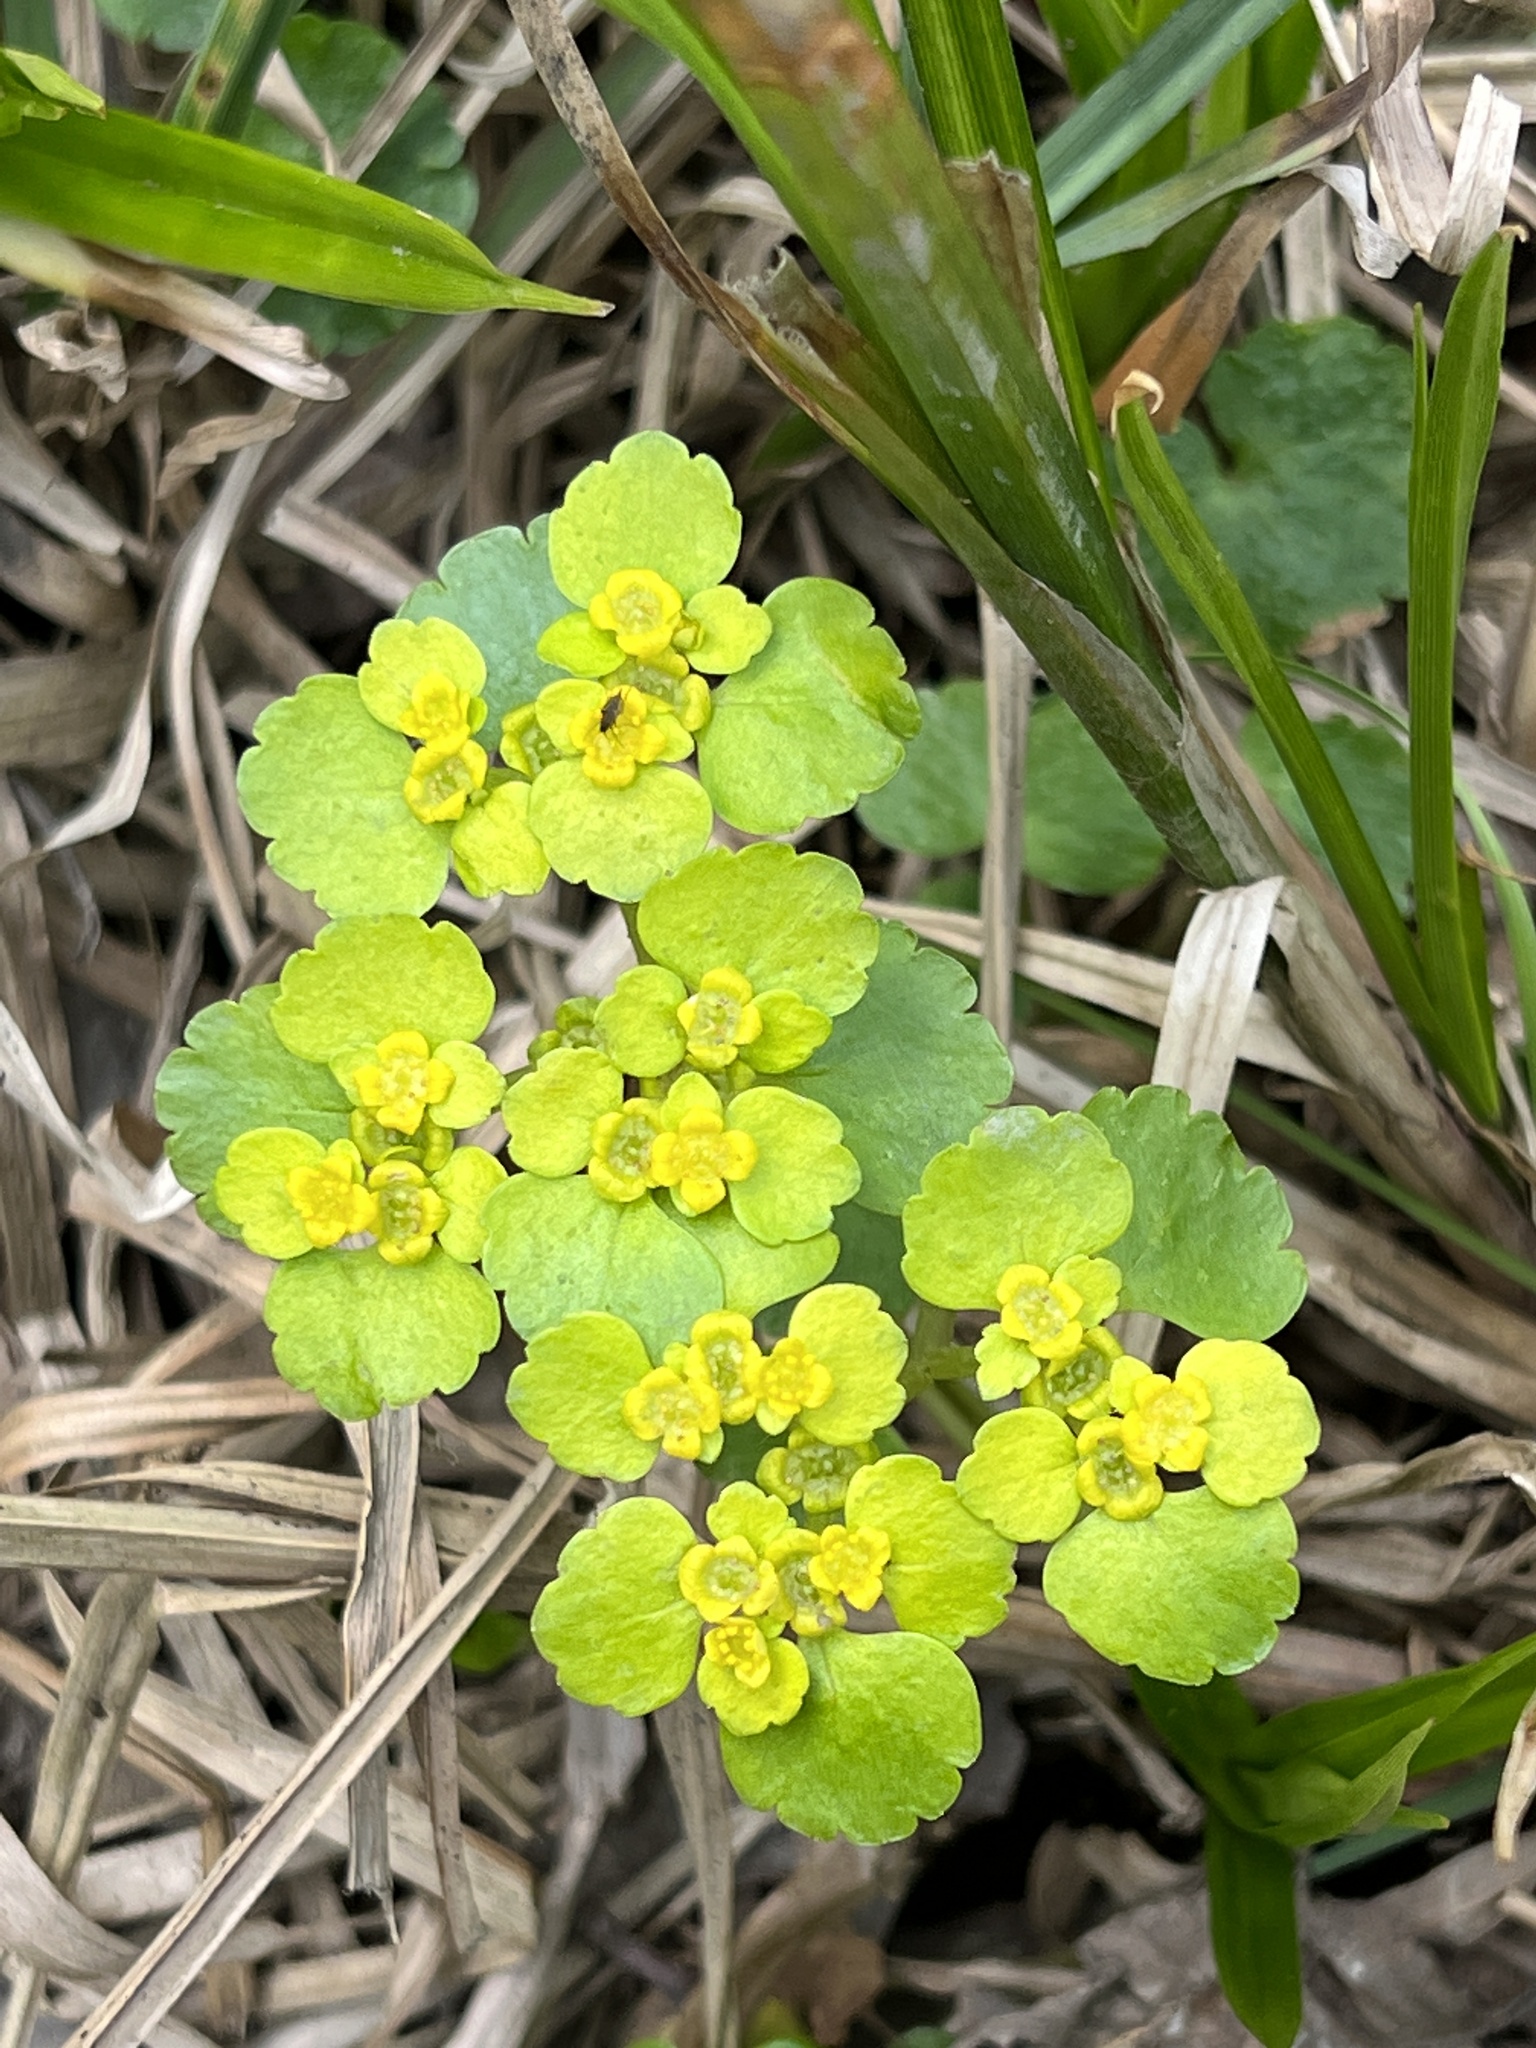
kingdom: Plantae
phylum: Tracheophyta
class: Magnoliopsida
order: Saxifragales
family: Saxifragaceae
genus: Chrysosplenium
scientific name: Chrysosplenium alternifolium
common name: Alternate-leaved golden-saxifrage
